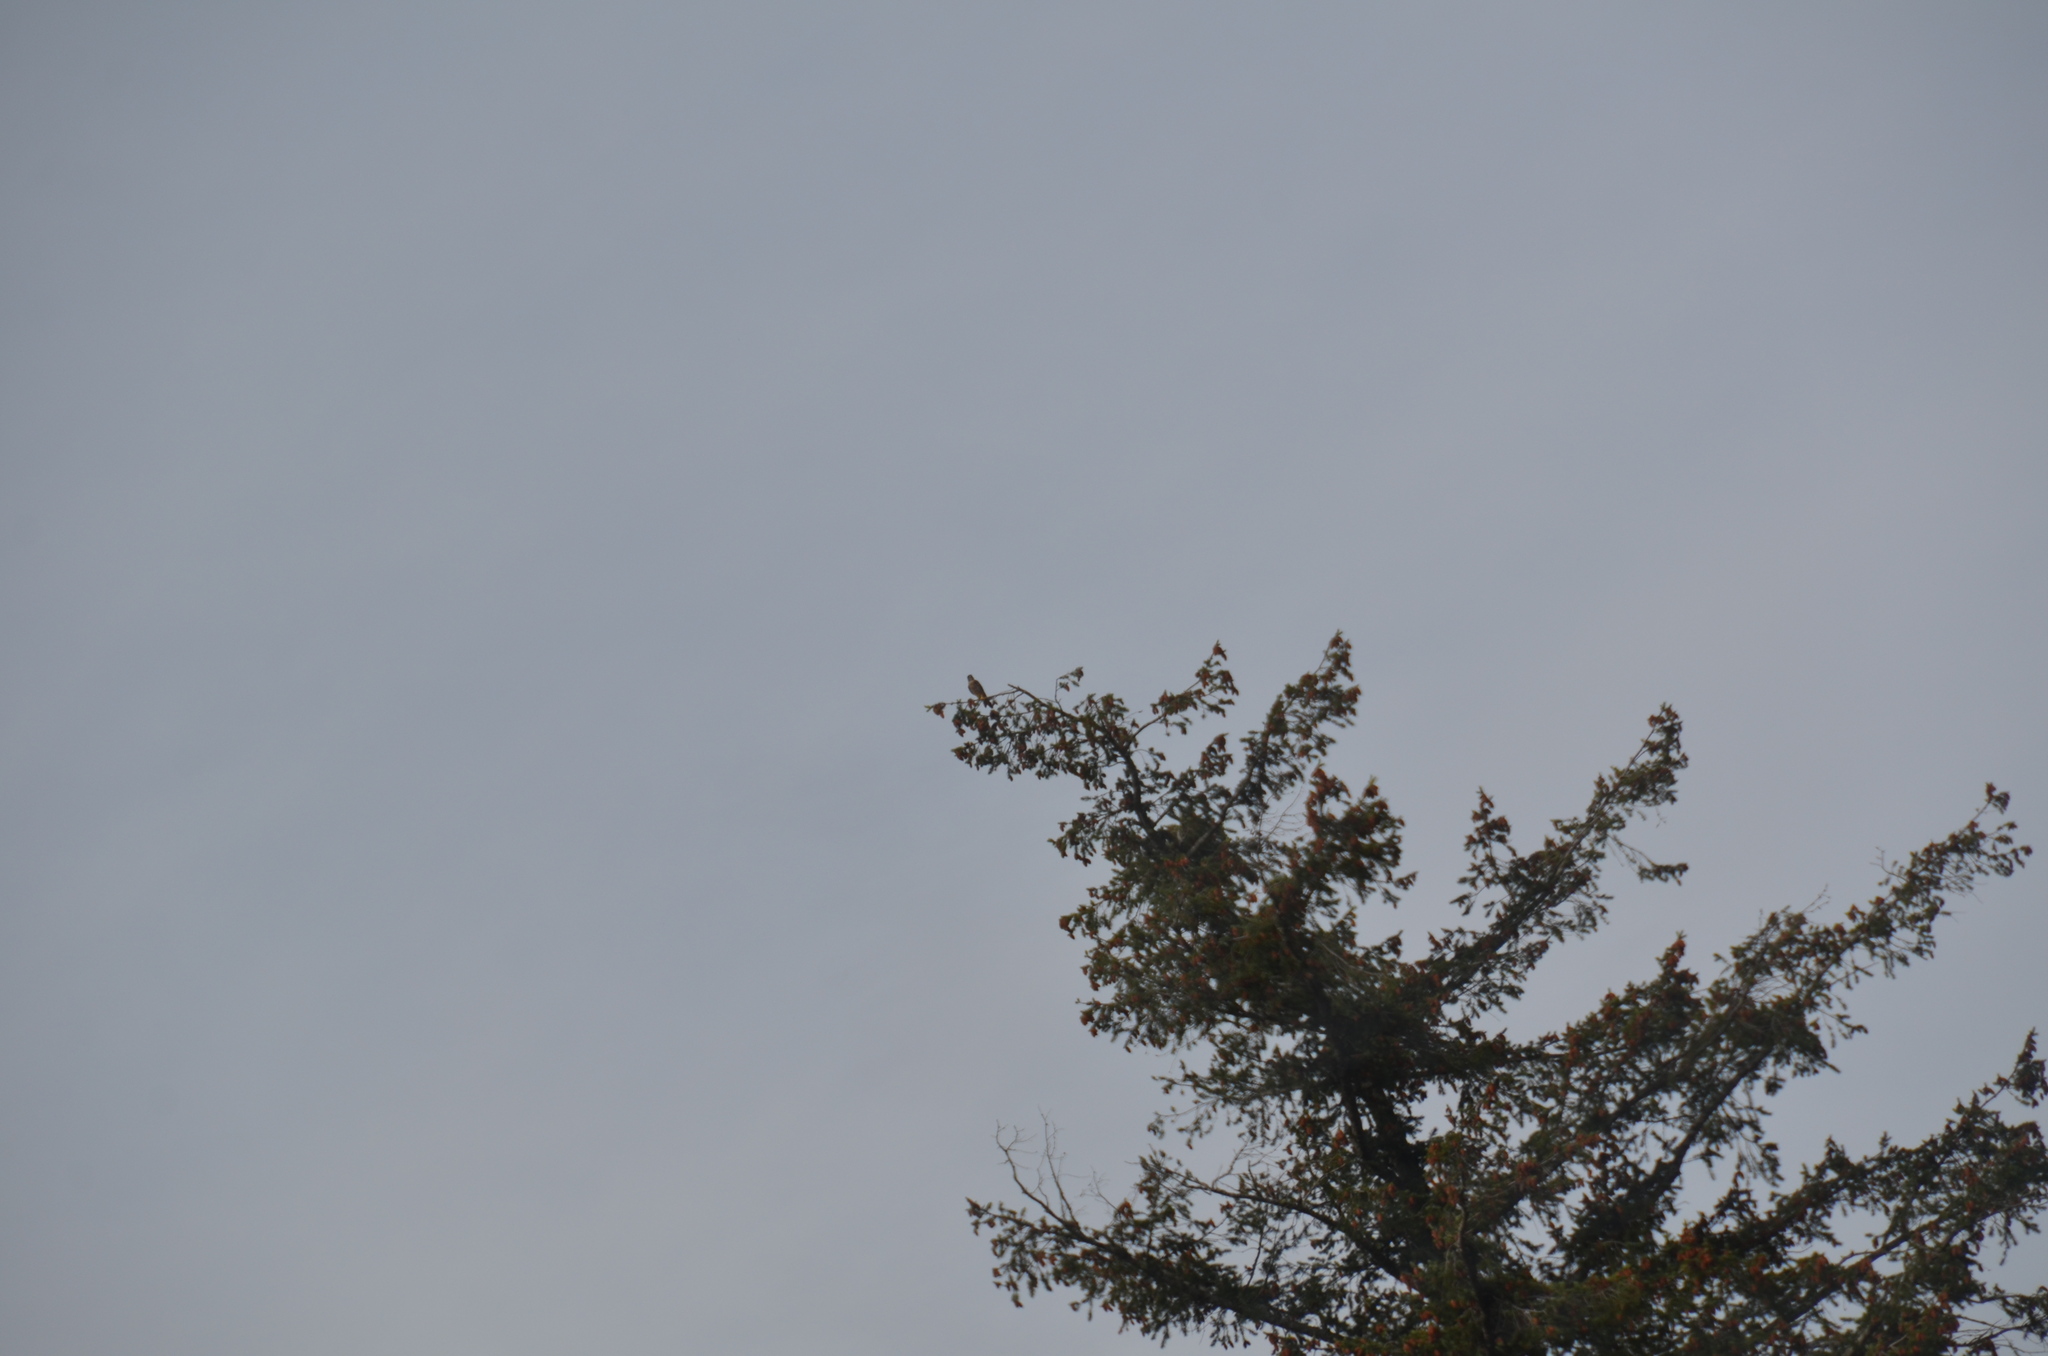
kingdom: Animalia
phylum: Chordata
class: Aves
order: Falconiformes
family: Falconidae
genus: Falco
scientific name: Falco columbarius
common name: Merlin
